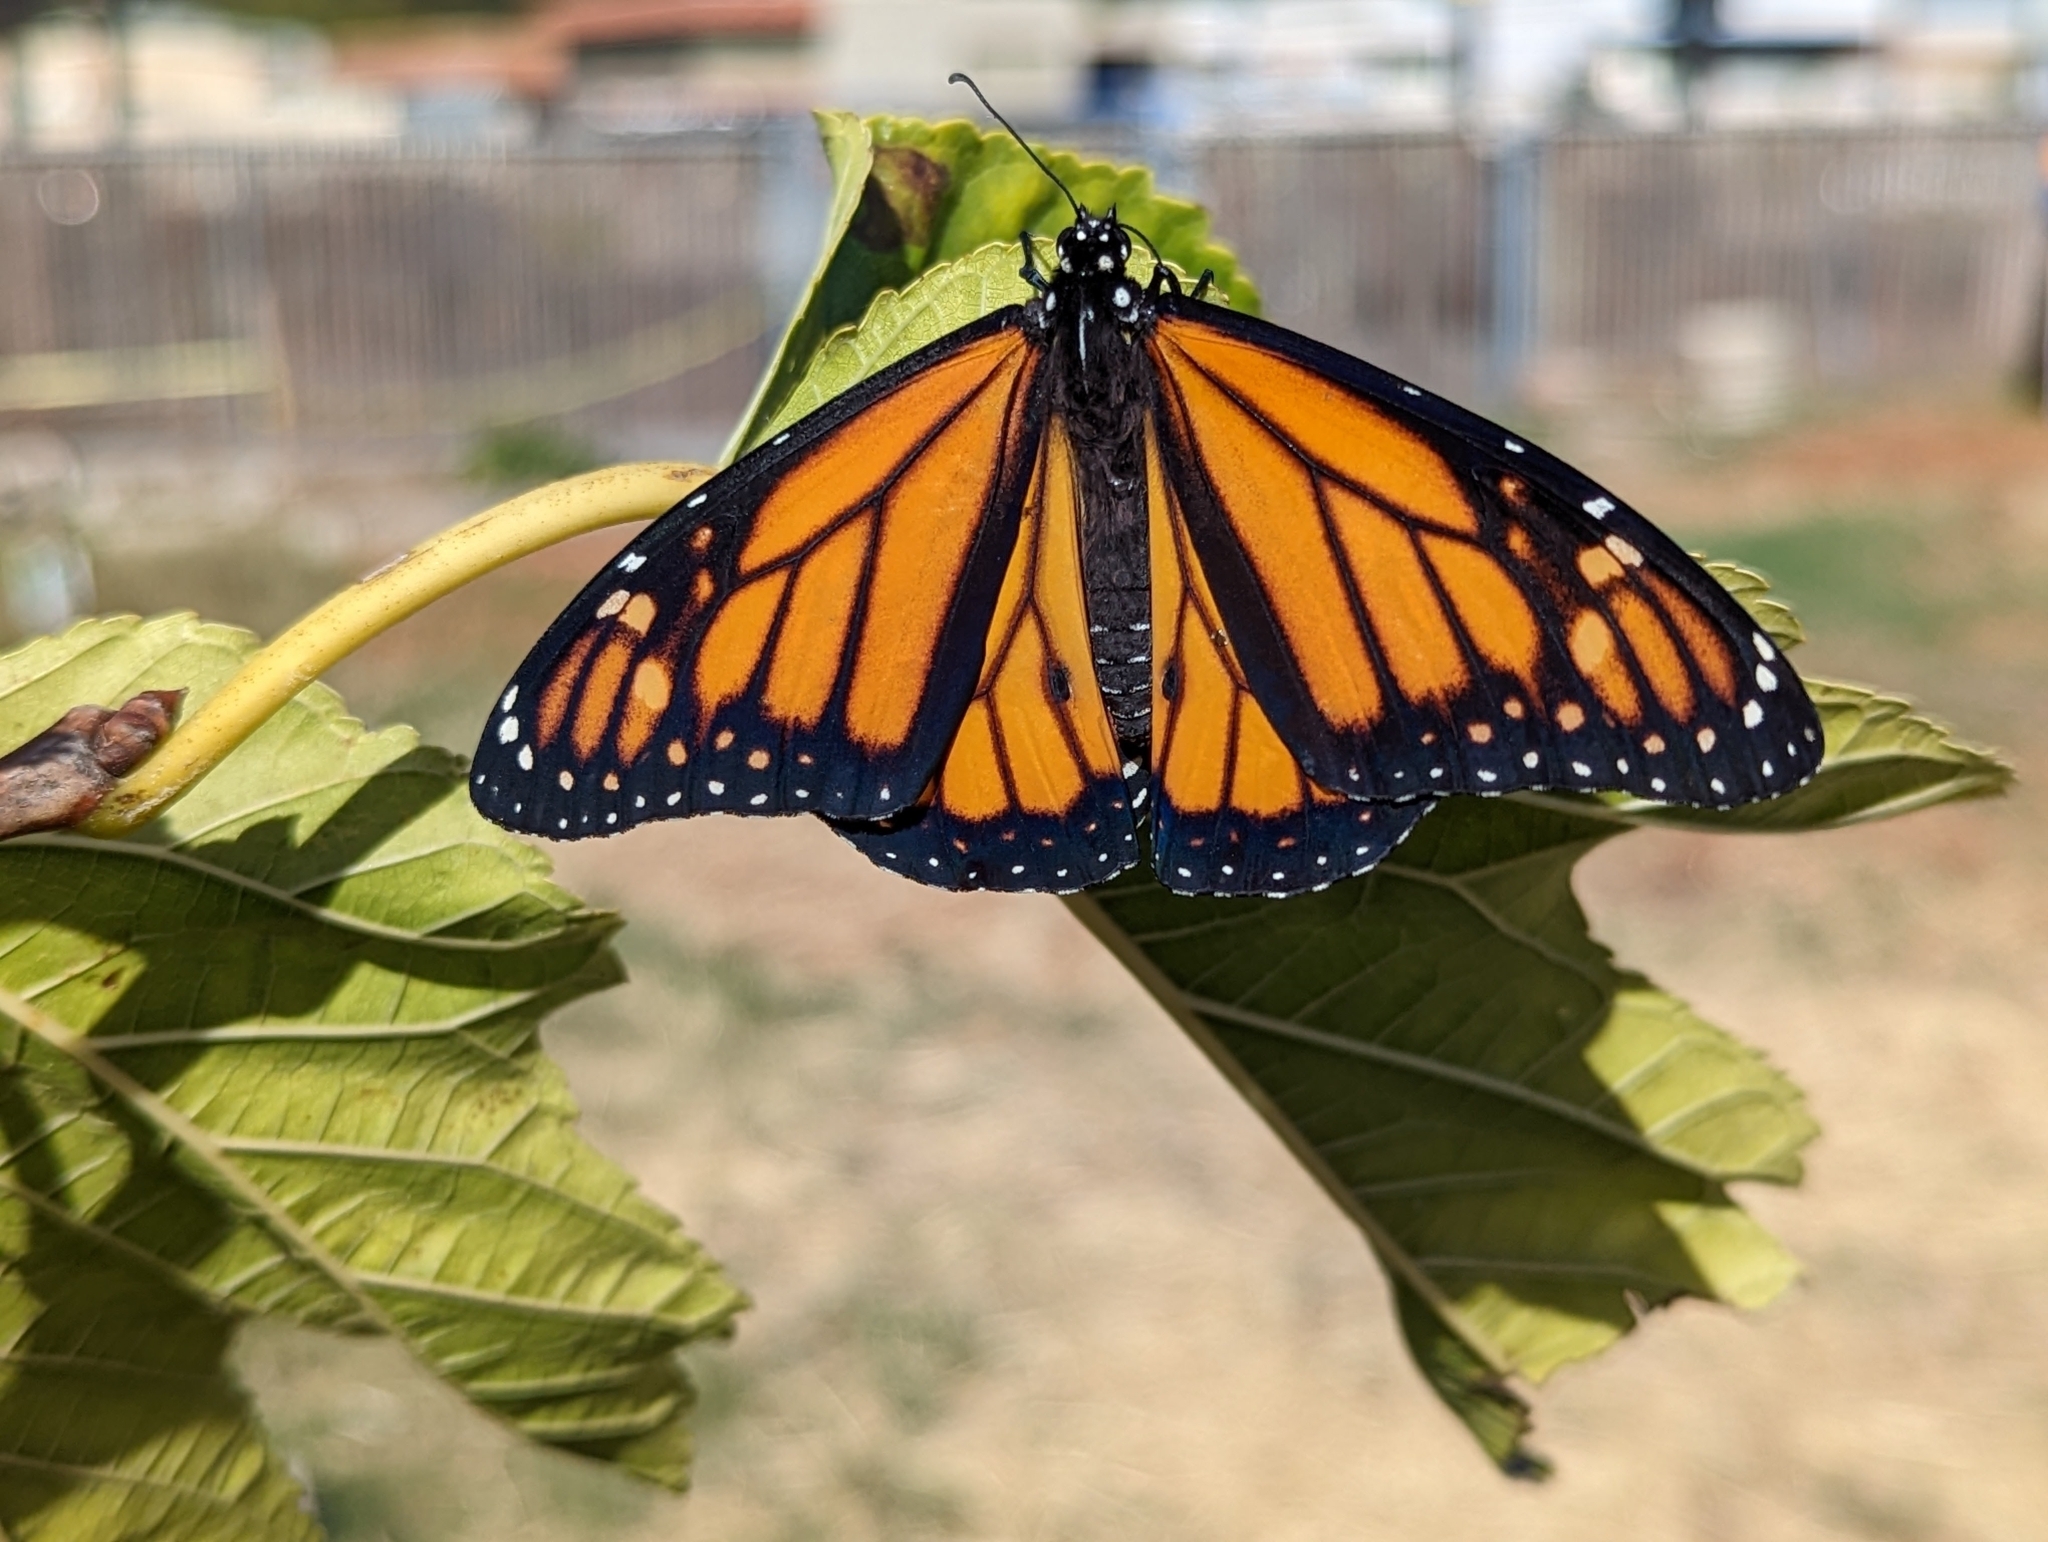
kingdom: Animalia
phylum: Arthropoda
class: Insecta
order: Lepidoptera
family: Nymphalidae
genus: Danaus
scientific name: Danaus plexippus
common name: Monarch
